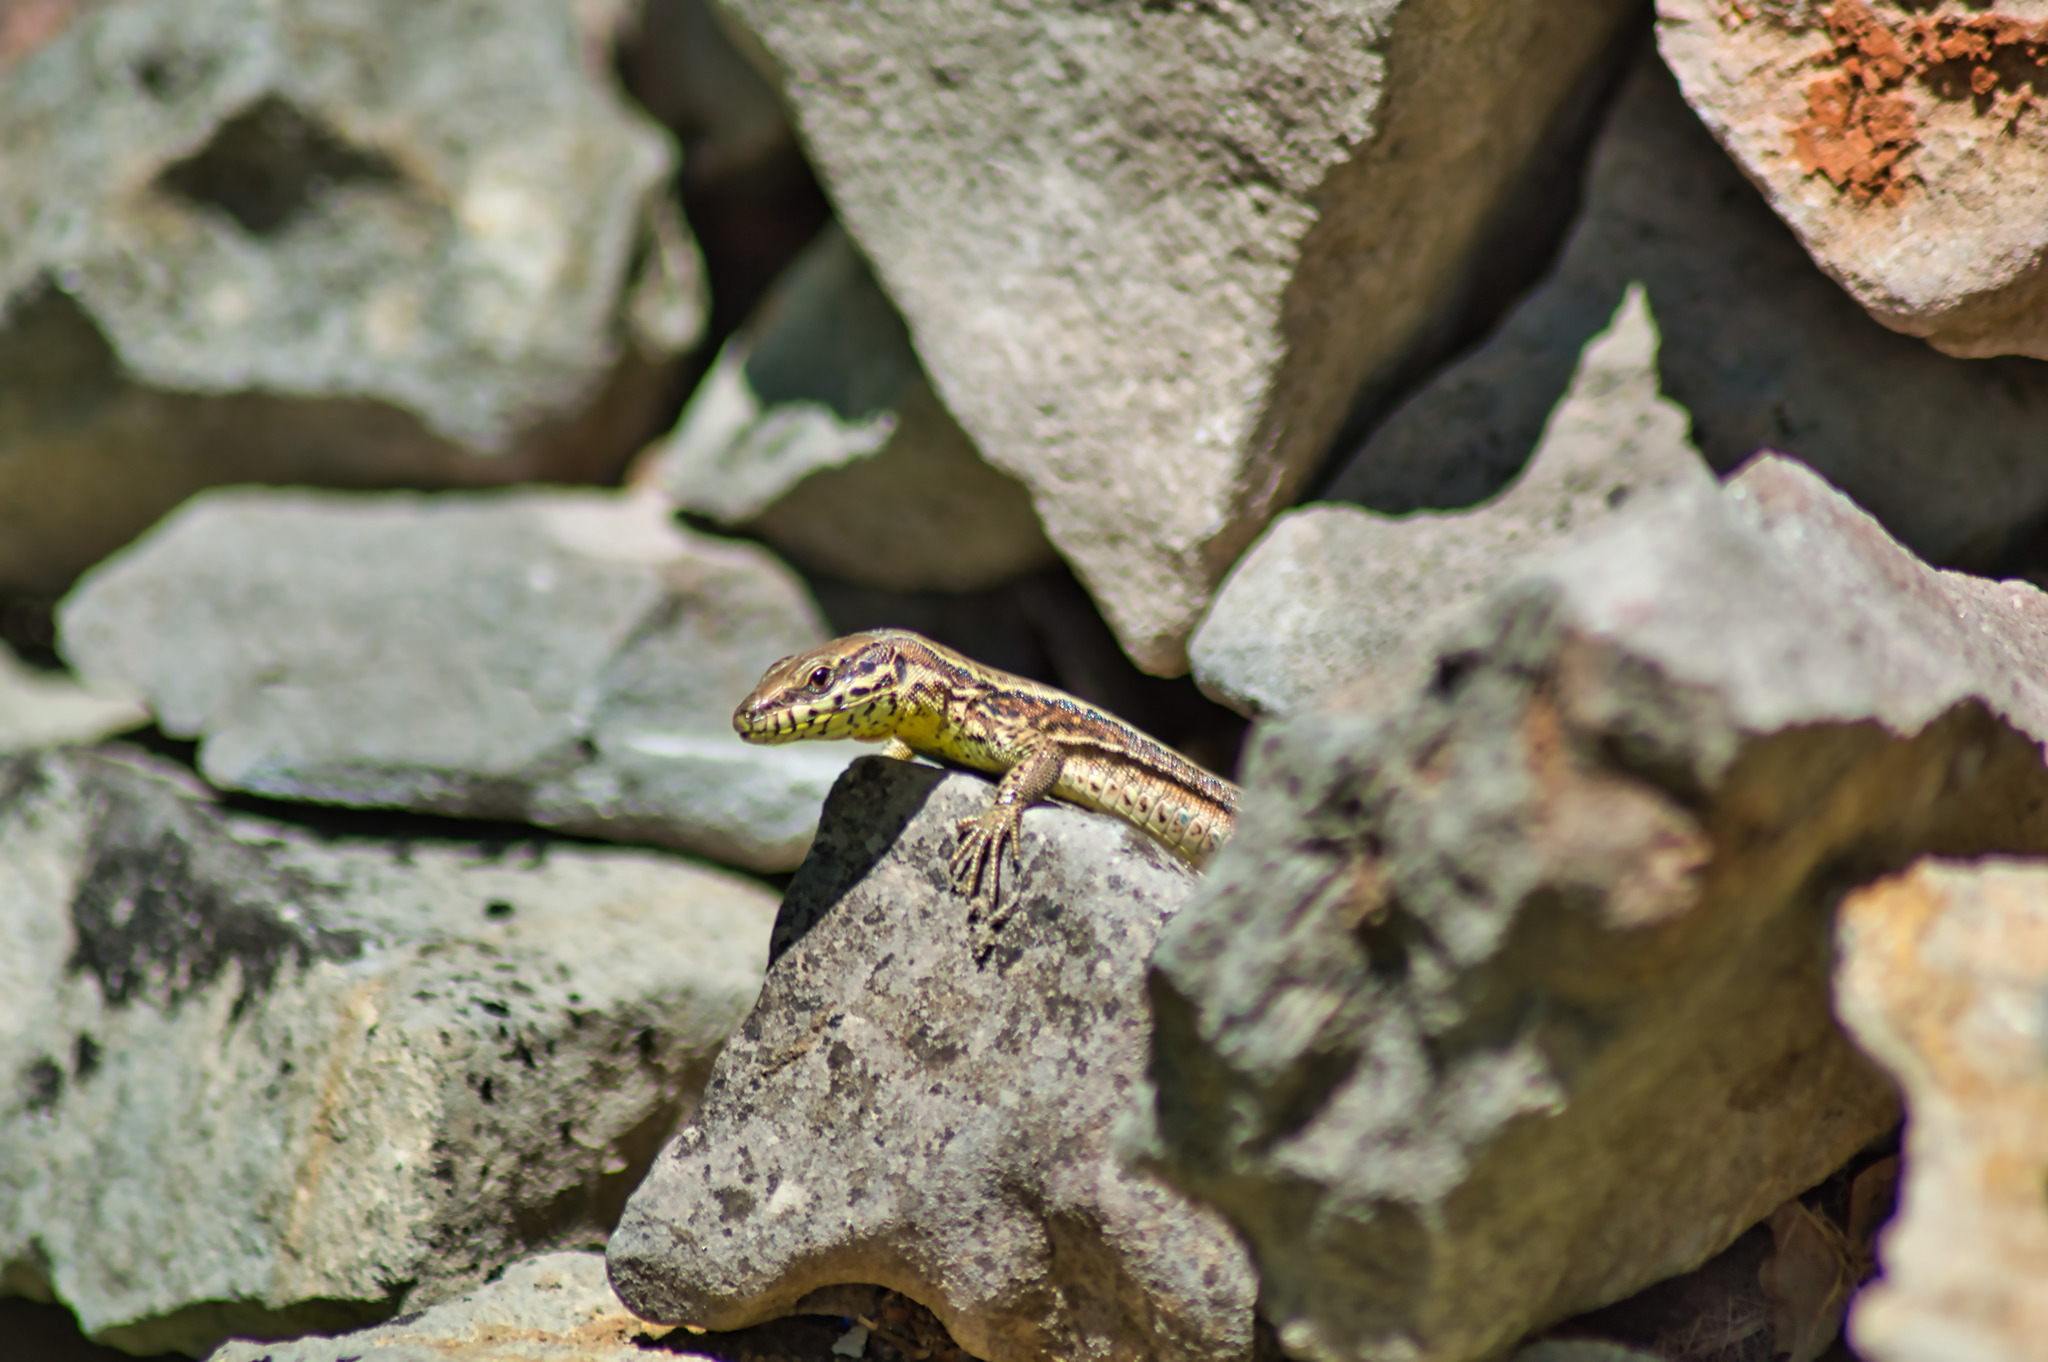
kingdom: Animalia
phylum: Chordata
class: Squamata
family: Lacertidae
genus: Podarcis
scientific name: Podarcis muralis
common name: Common wall lizard
